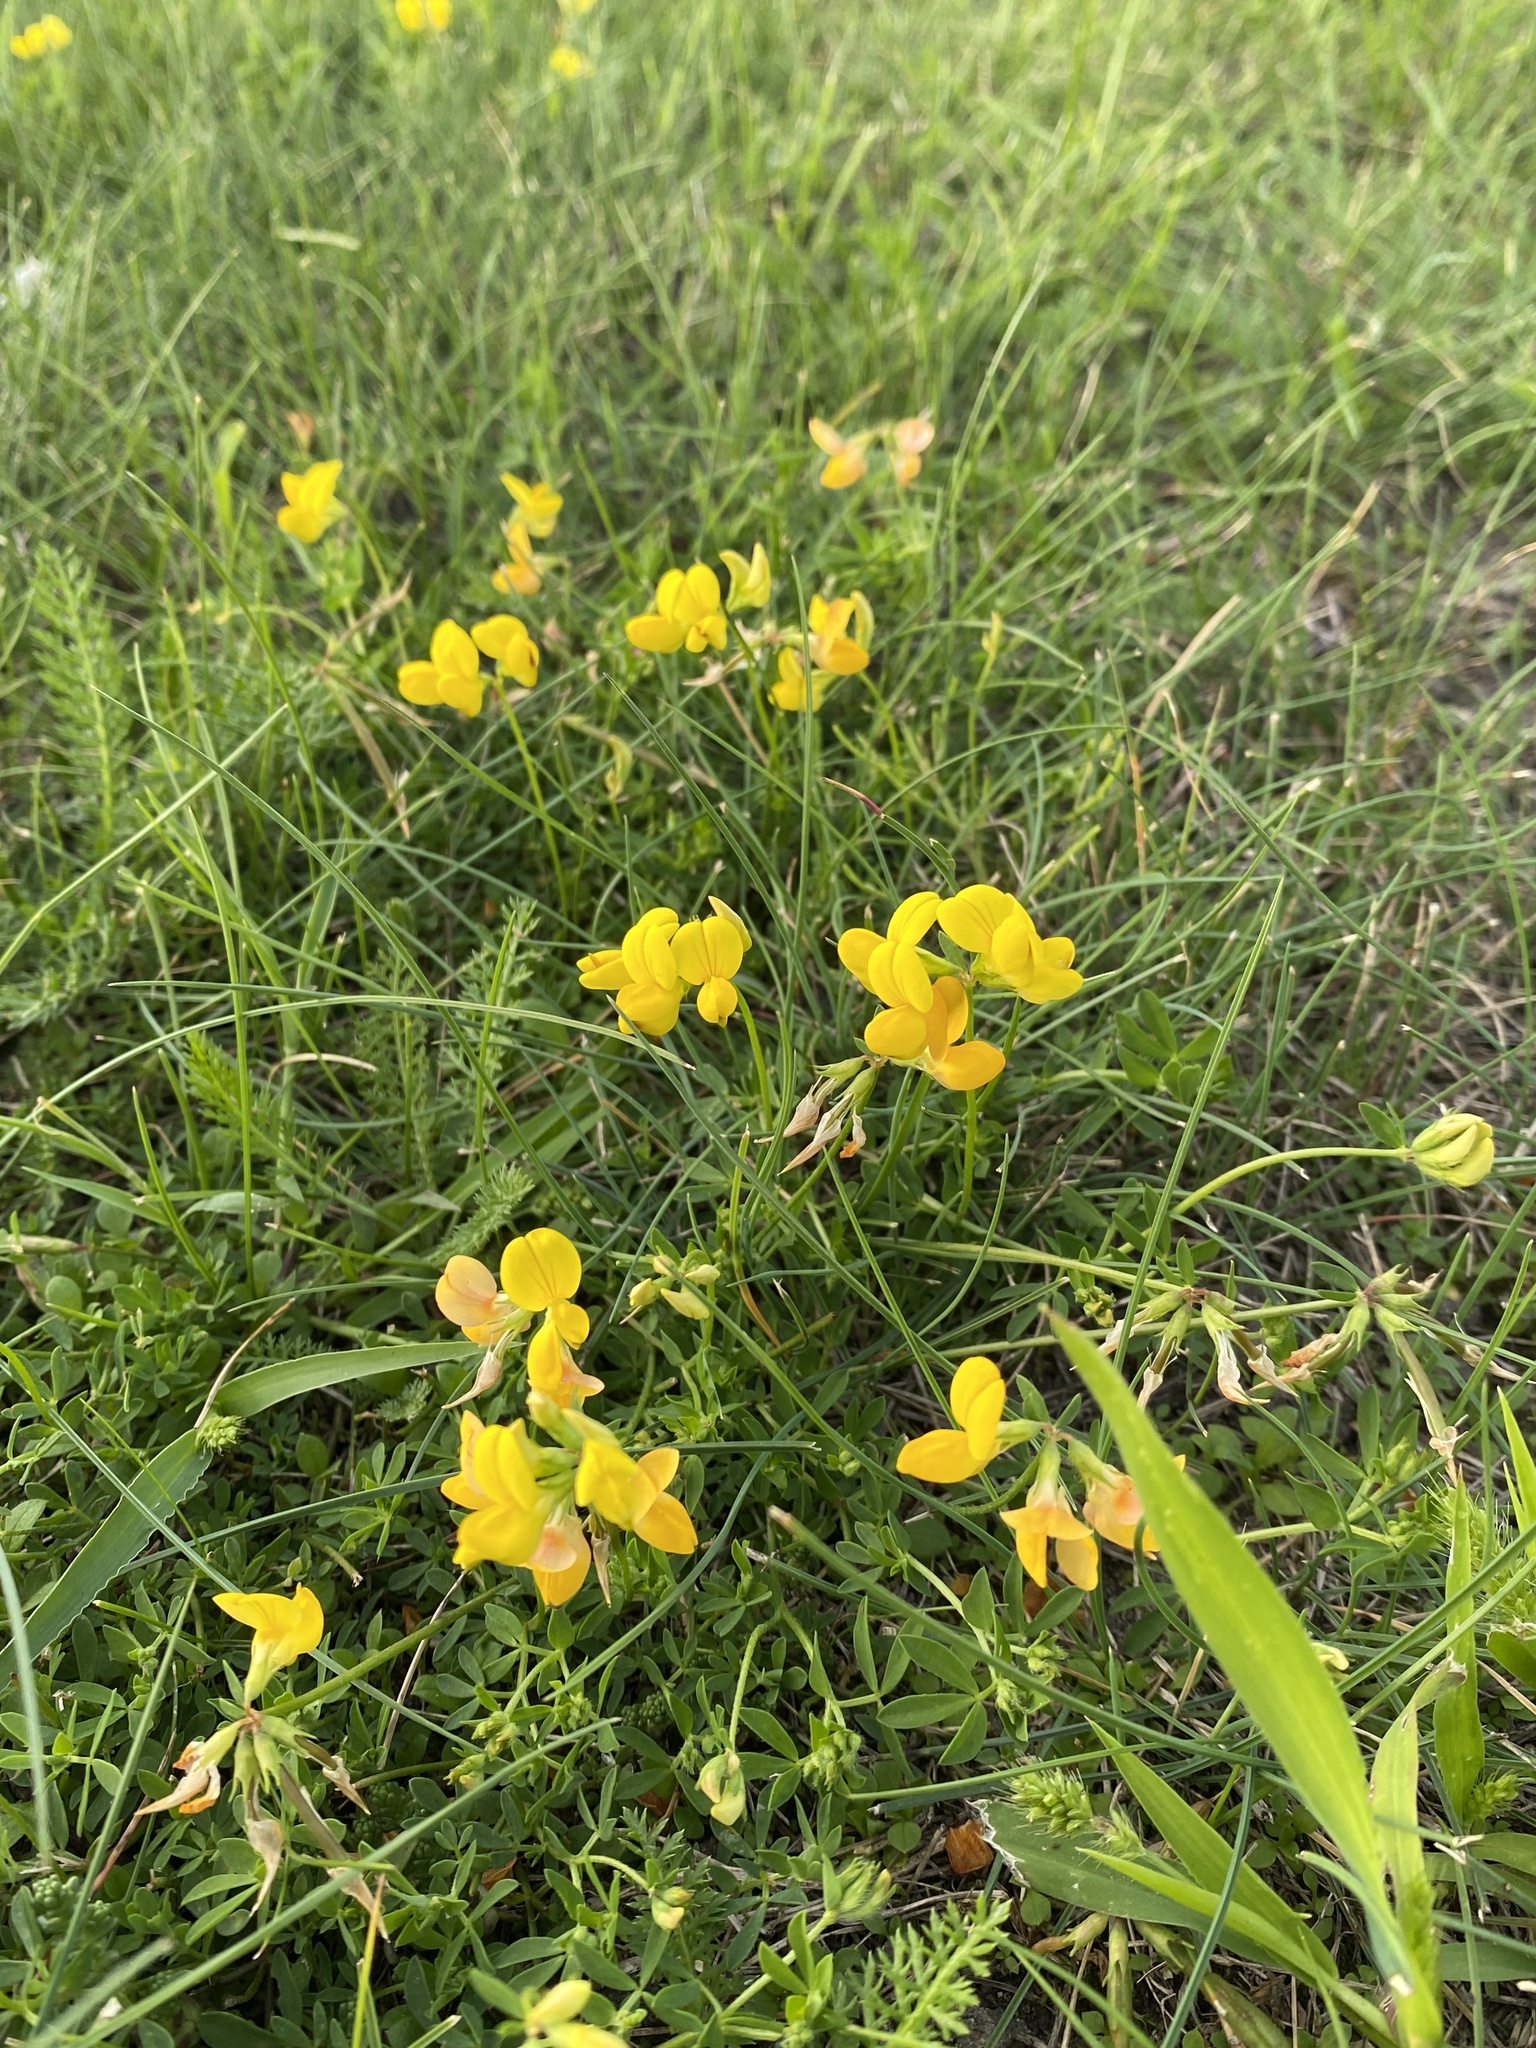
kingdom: Plantae
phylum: Tracheophyta
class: Magnoliopsida
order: Fabales
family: Fabaceae
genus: Lotus
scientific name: Lotus corniculatus
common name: Common bird's-foot-trefoil
